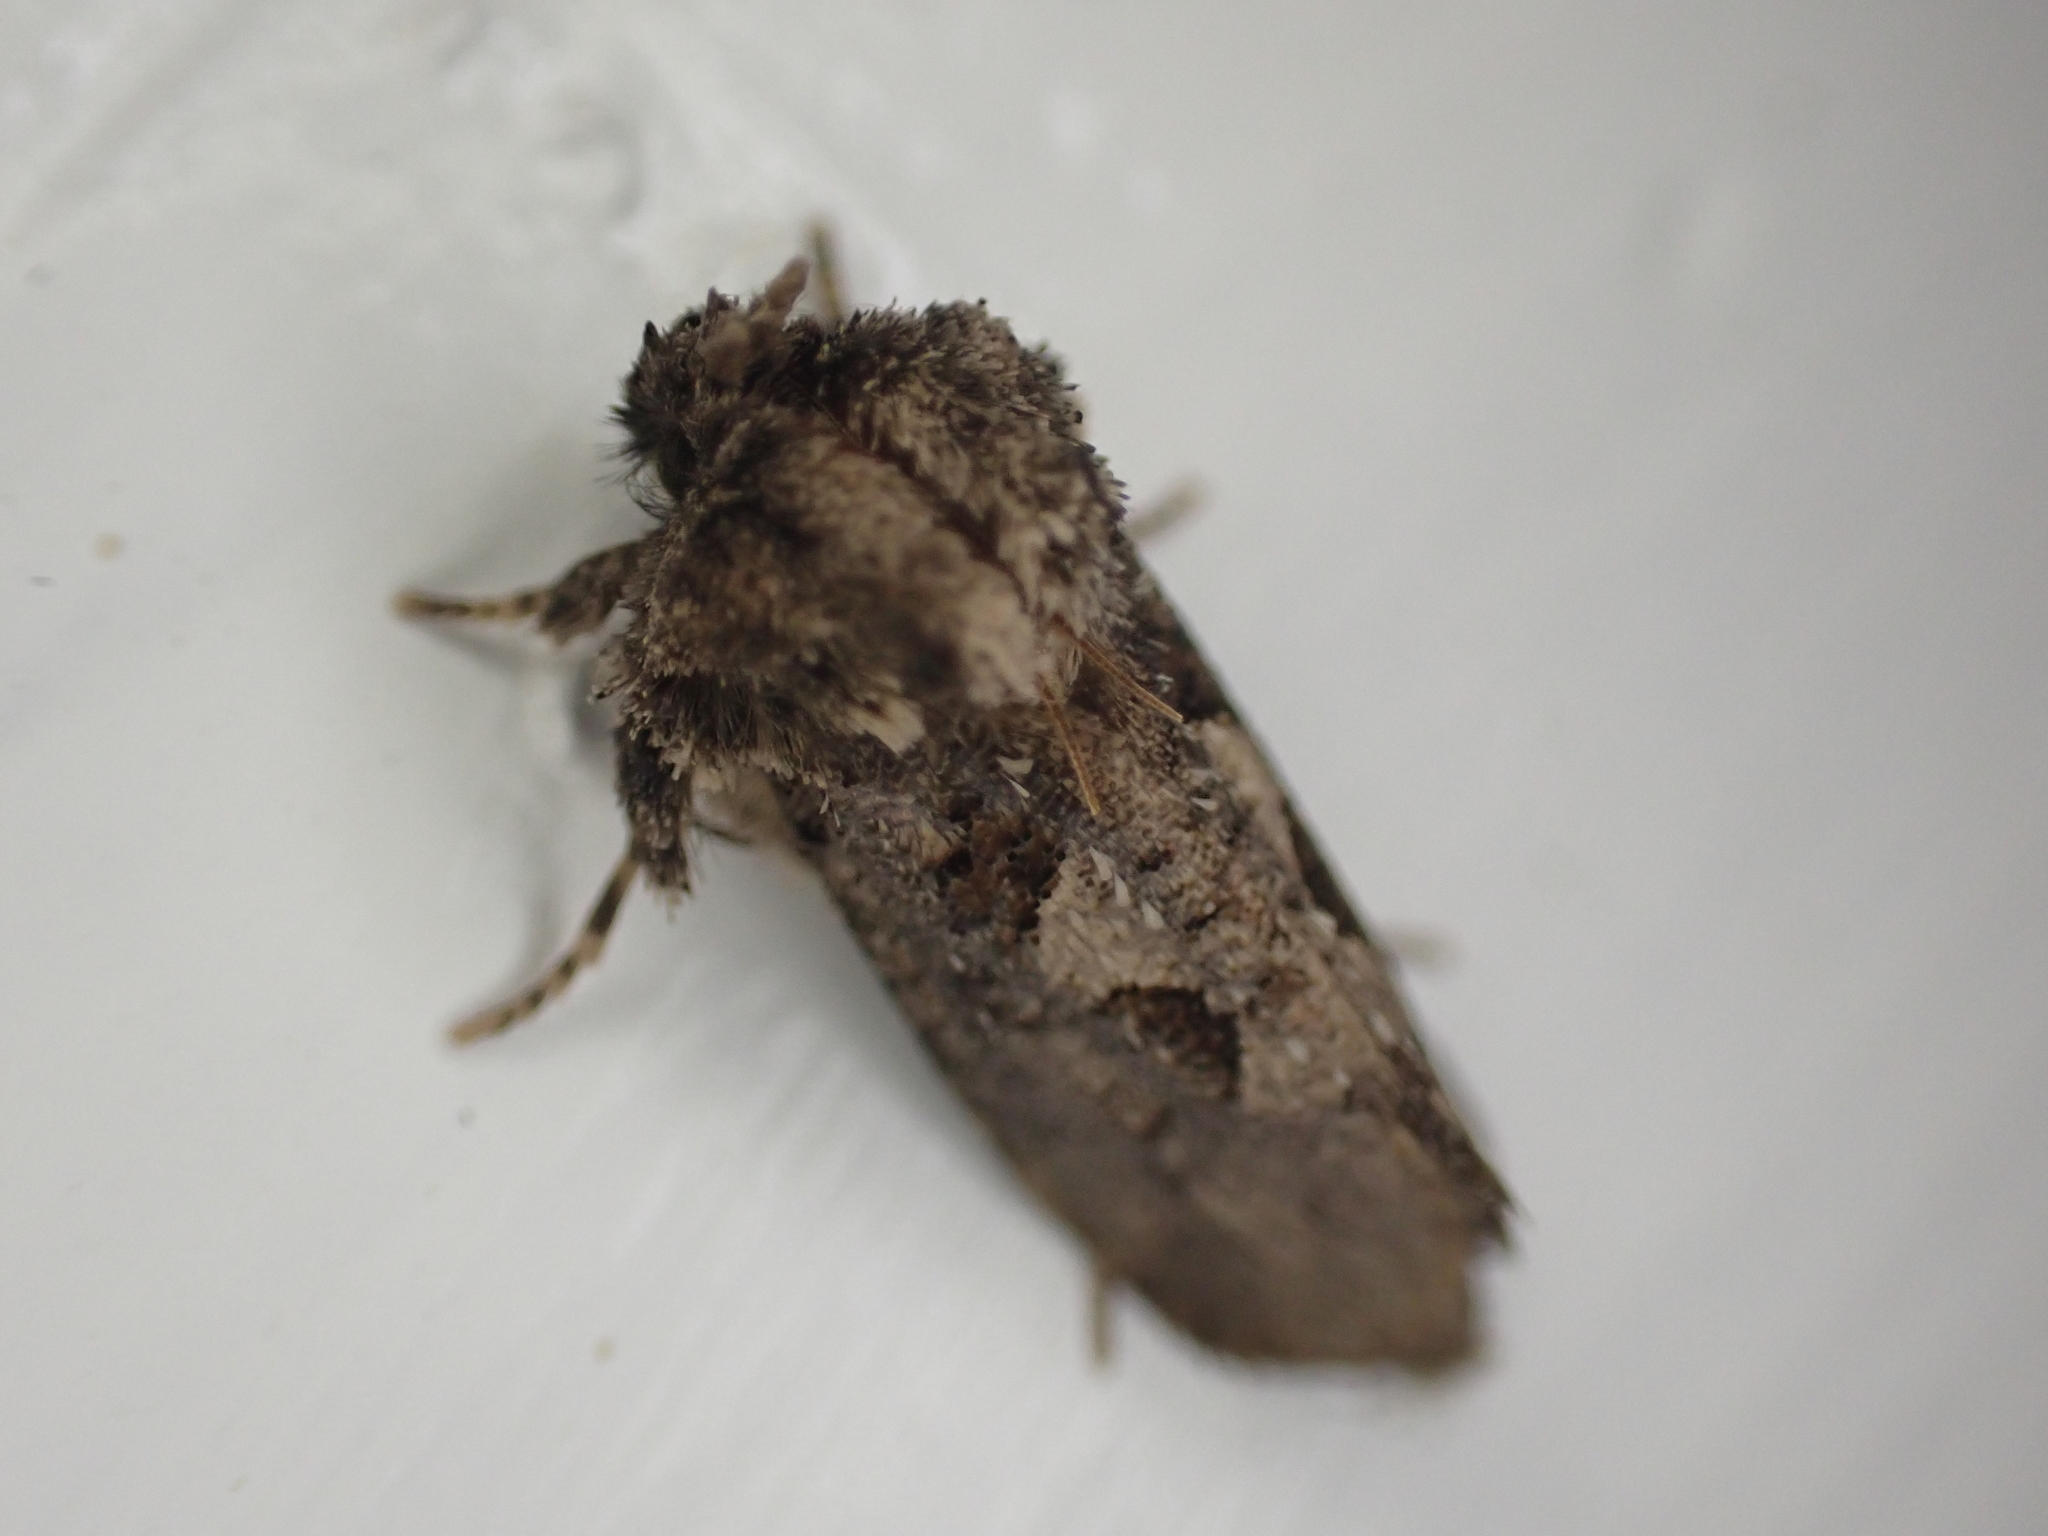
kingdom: Animalia
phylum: Arthropoda
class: Insecta
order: Lepidoptera
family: Tineidae
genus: Acrolophus
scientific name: Acrolophus arcanella
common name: Arcane grass tubeworm moth
